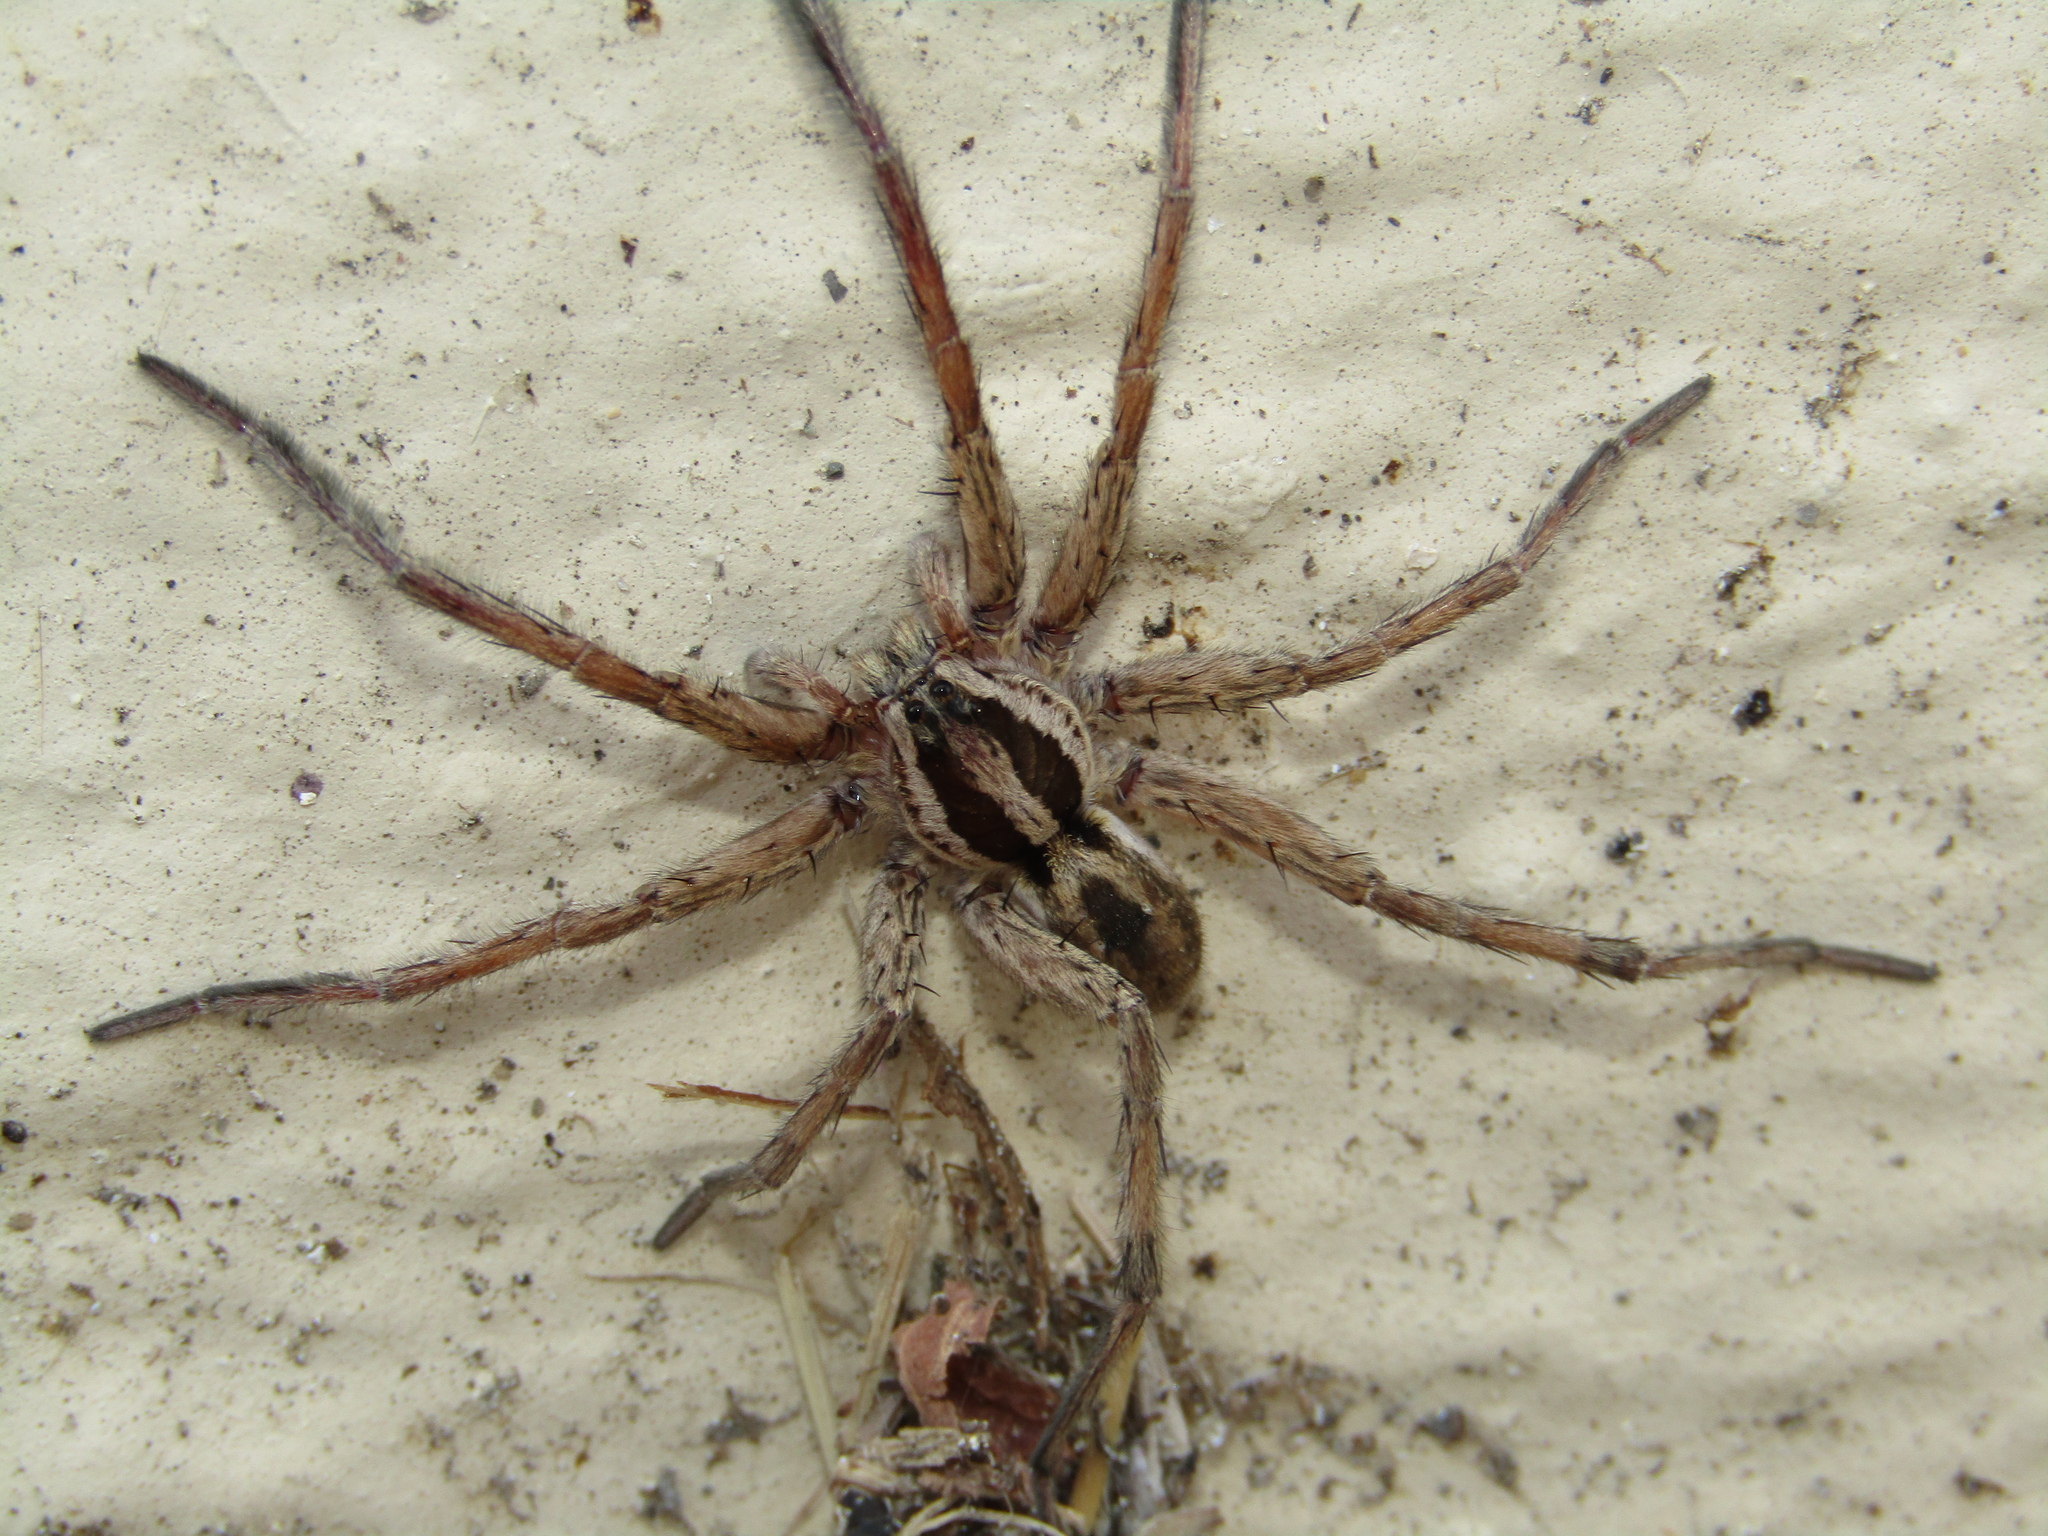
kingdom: Animalia
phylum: Arthropoda
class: Arachnida
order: Araneae
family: Lycosidae
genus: Hogna
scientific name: Hogna radiata
